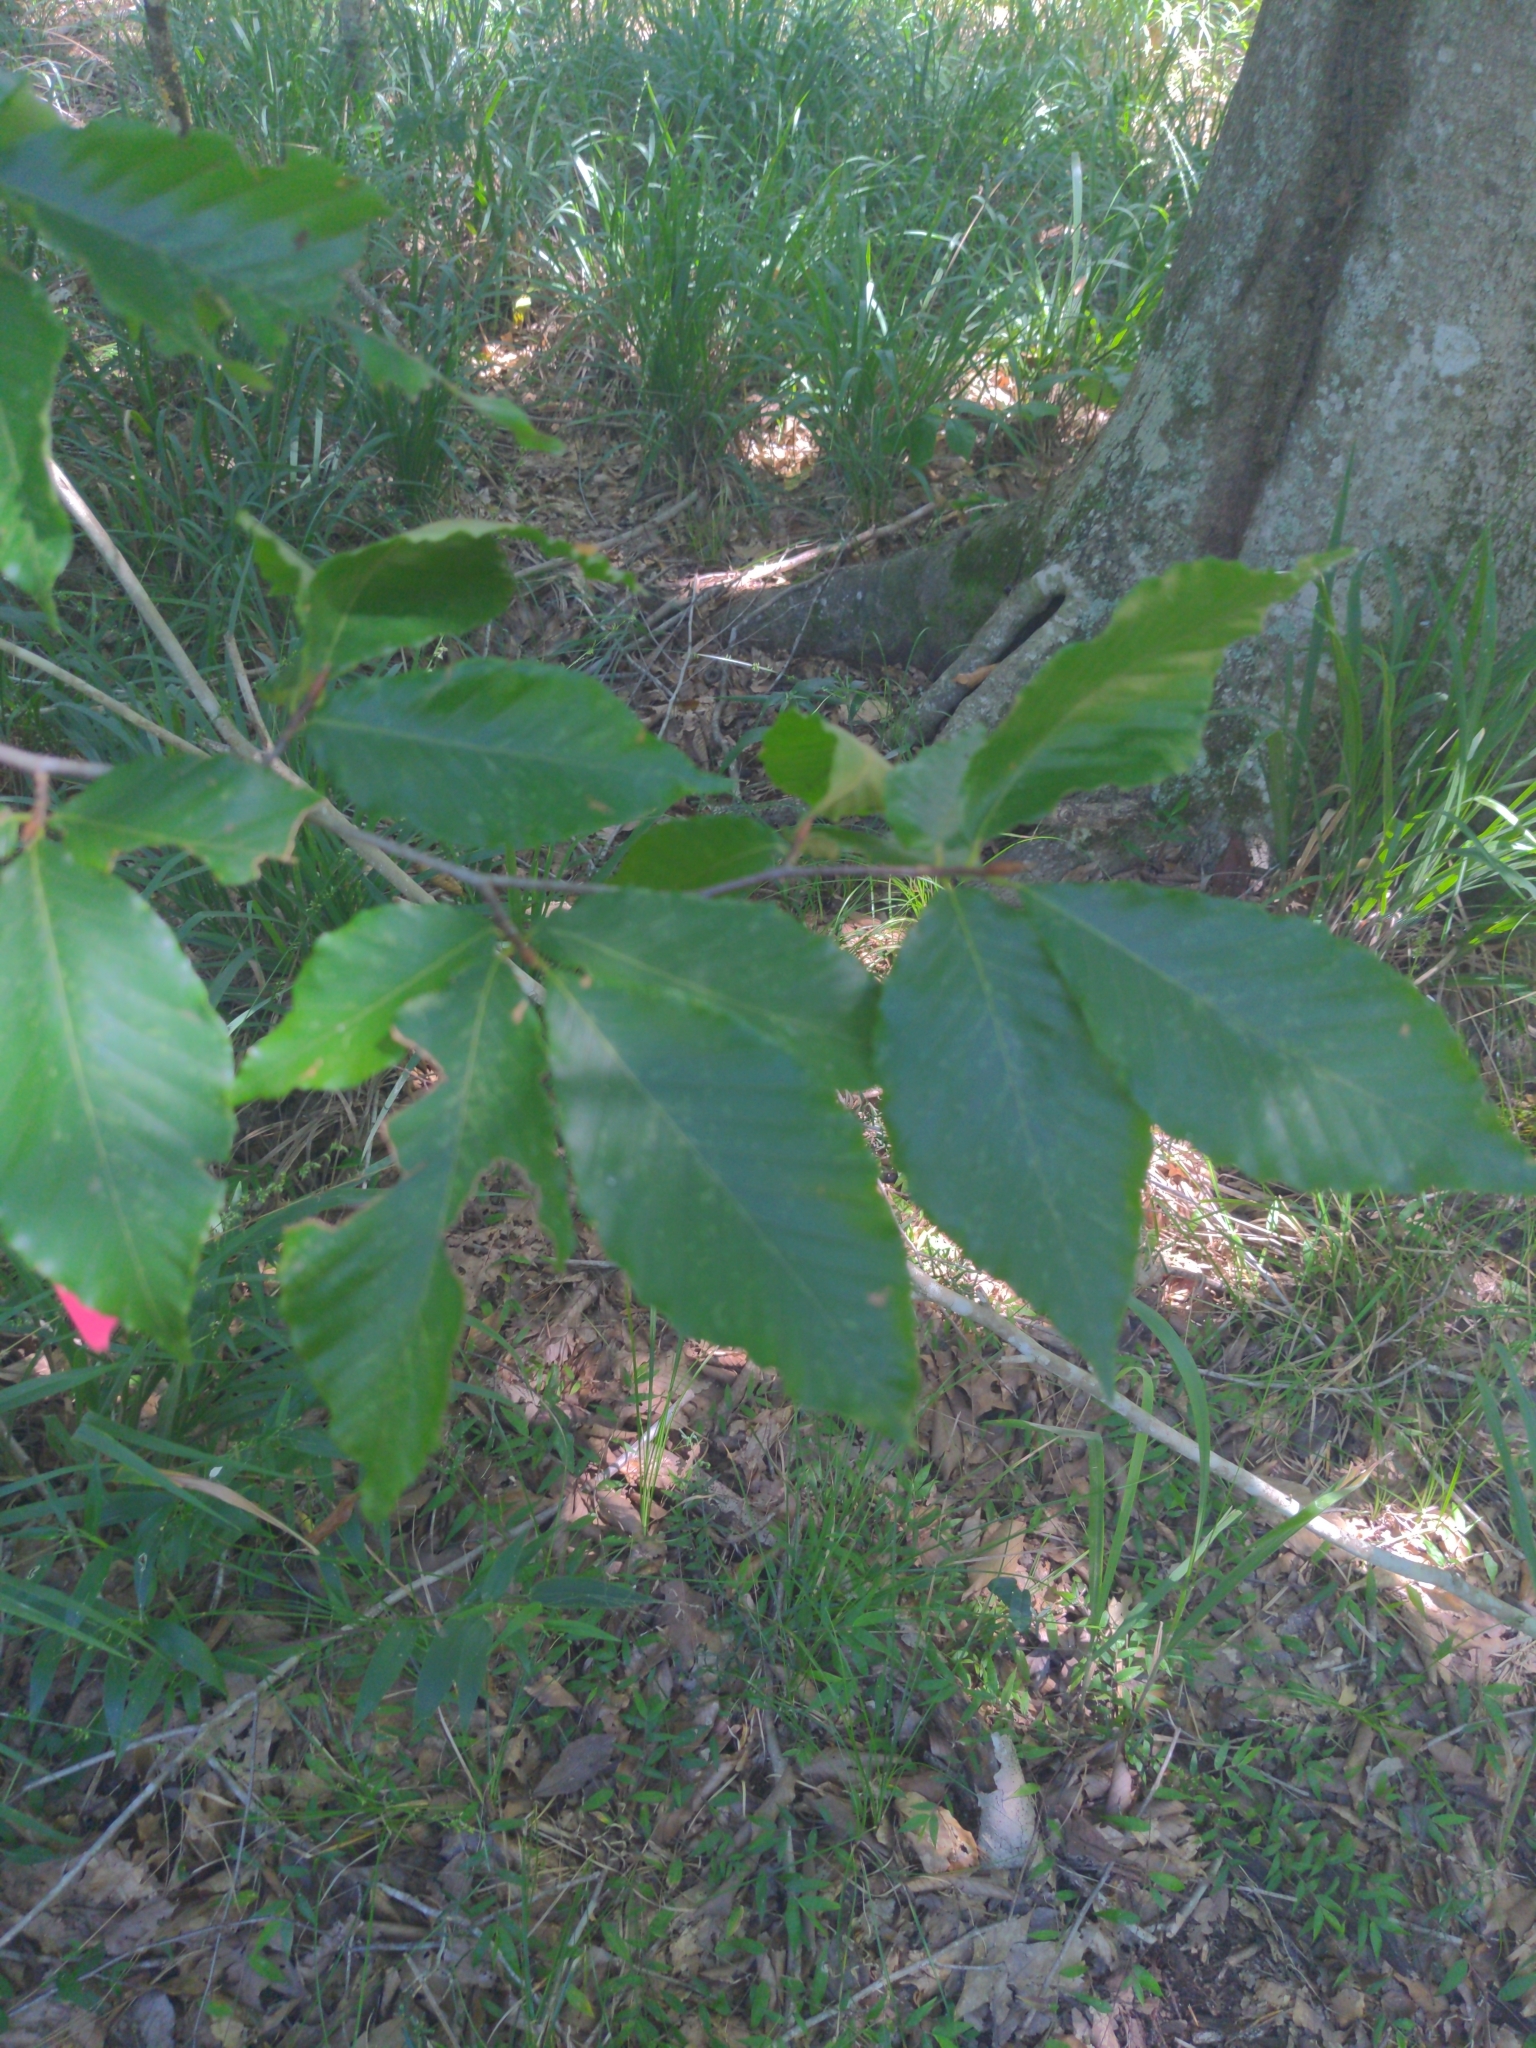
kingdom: Plantae
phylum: Tracheophyta
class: Magnoliopsida
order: Fagales
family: Fagaceae
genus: Fagus
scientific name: Fagus grandifolia
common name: American beech
